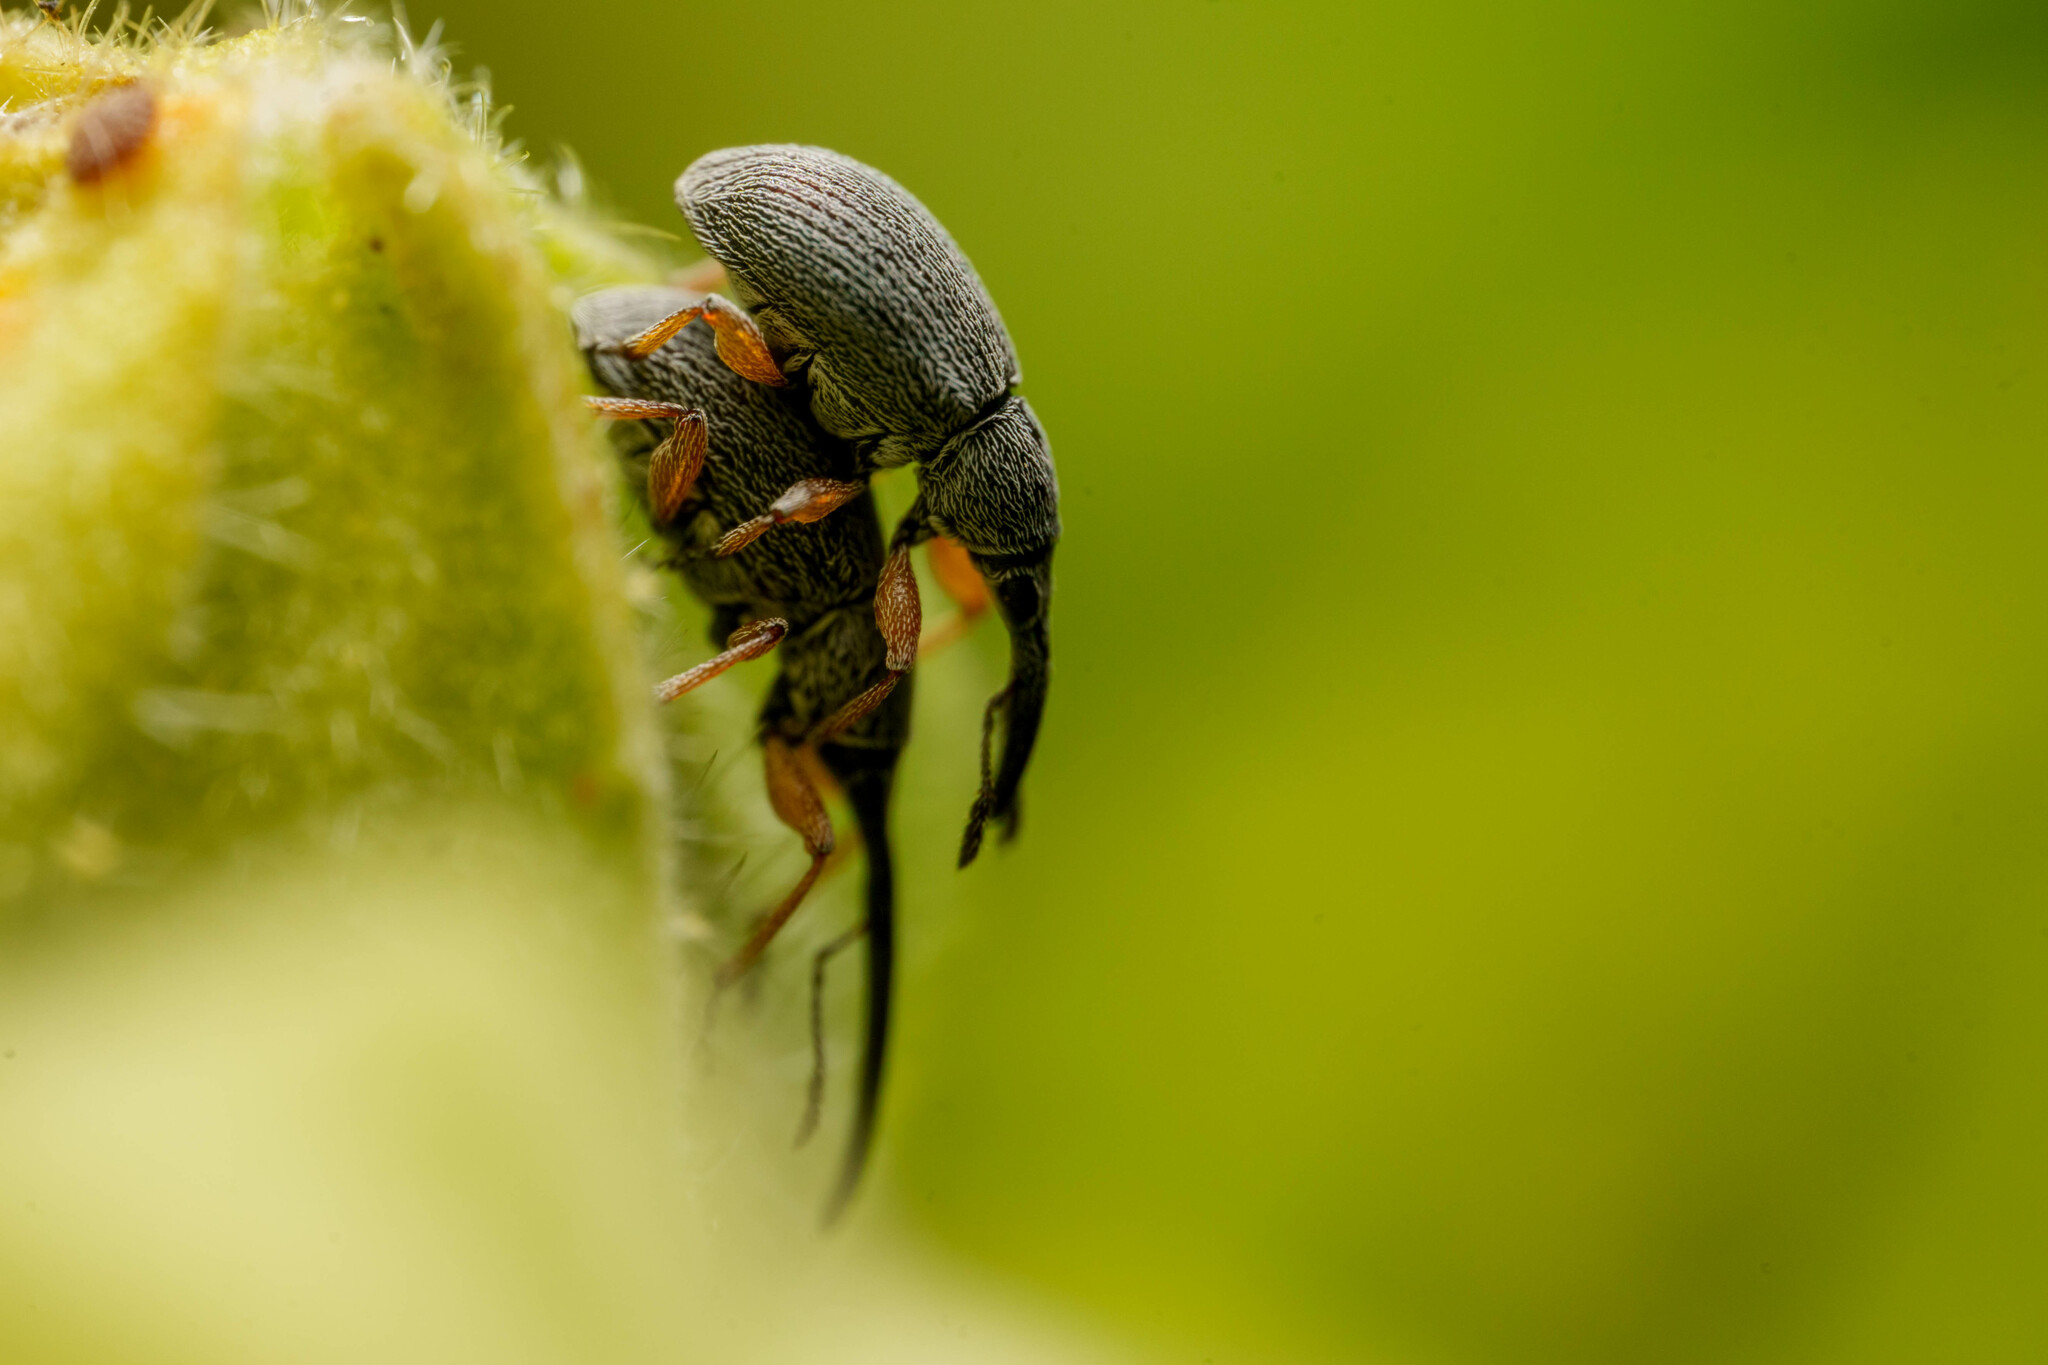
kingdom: Animalia
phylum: Arthropoda
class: Insecta
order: Coleoptera
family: Brentidae
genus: Rhopalapion
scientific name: Rhopalapion longirostre
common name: Hollyhock weevil
